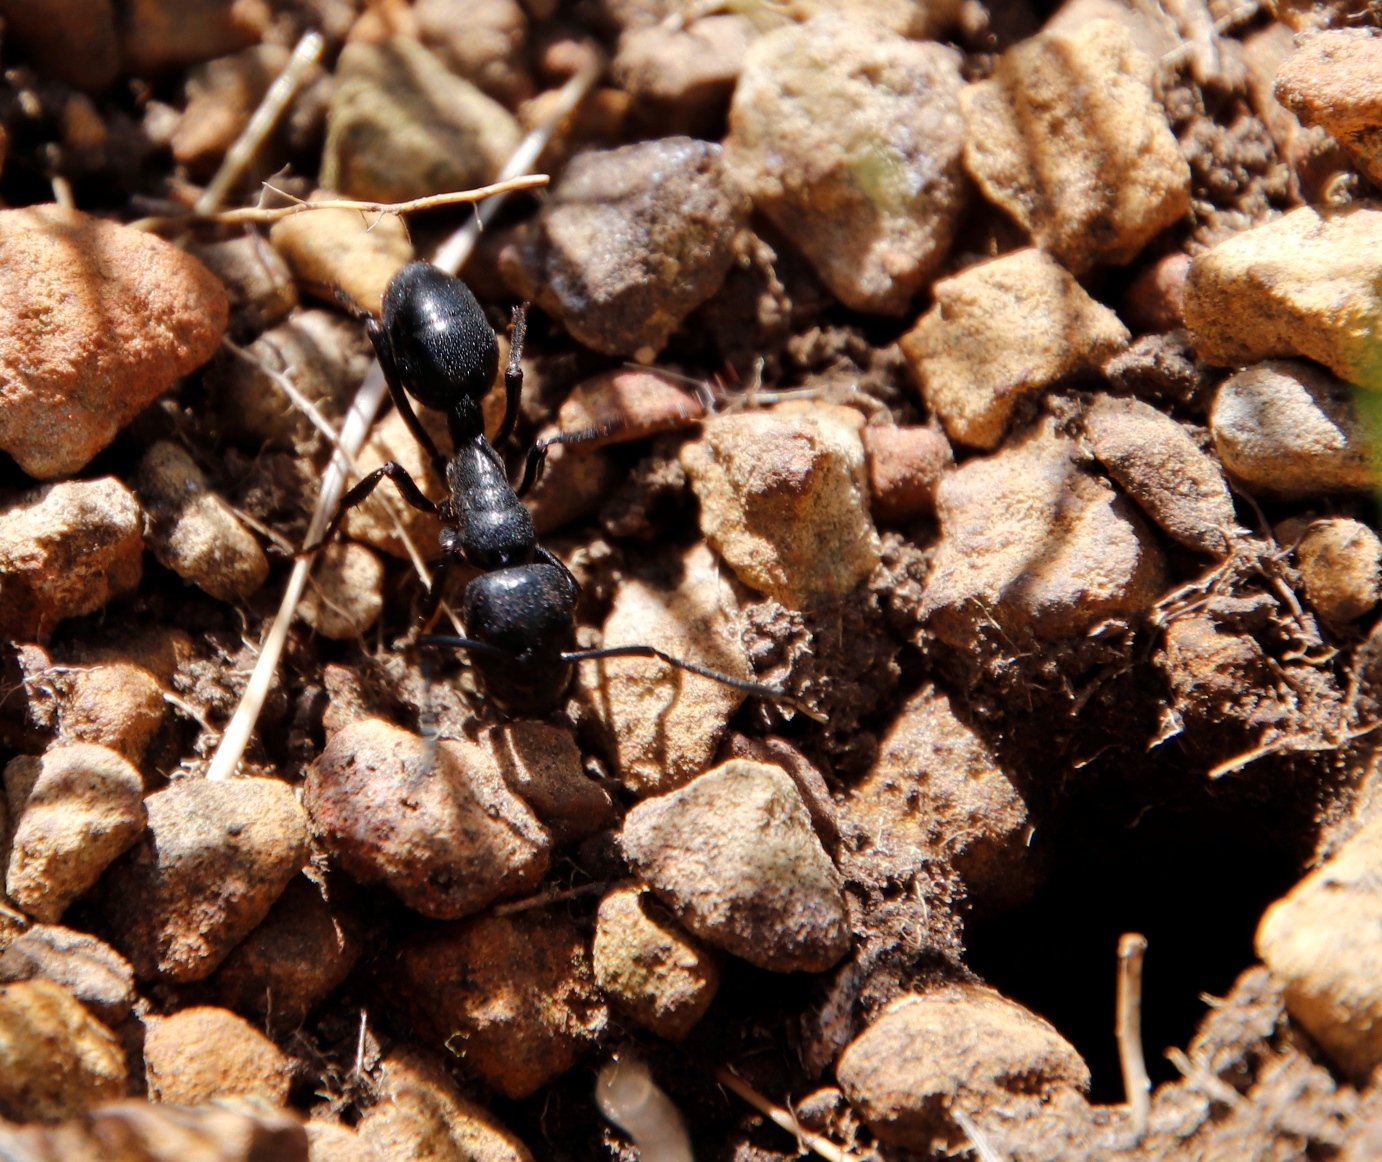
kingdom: Animalia
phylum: Arthropoda
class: Insecta
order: Hymenoptera
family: Formicidae
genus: Streblognathus
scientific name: Streblognathus peetersi
